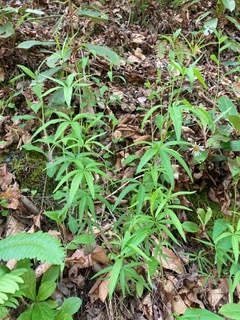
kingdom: Plantae
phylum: Tracheophyta
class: Magnoliopsida
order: Asterales
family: Asteraceae
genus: Coreopsis
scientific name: Coreopsis major
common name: Forest tickseed
